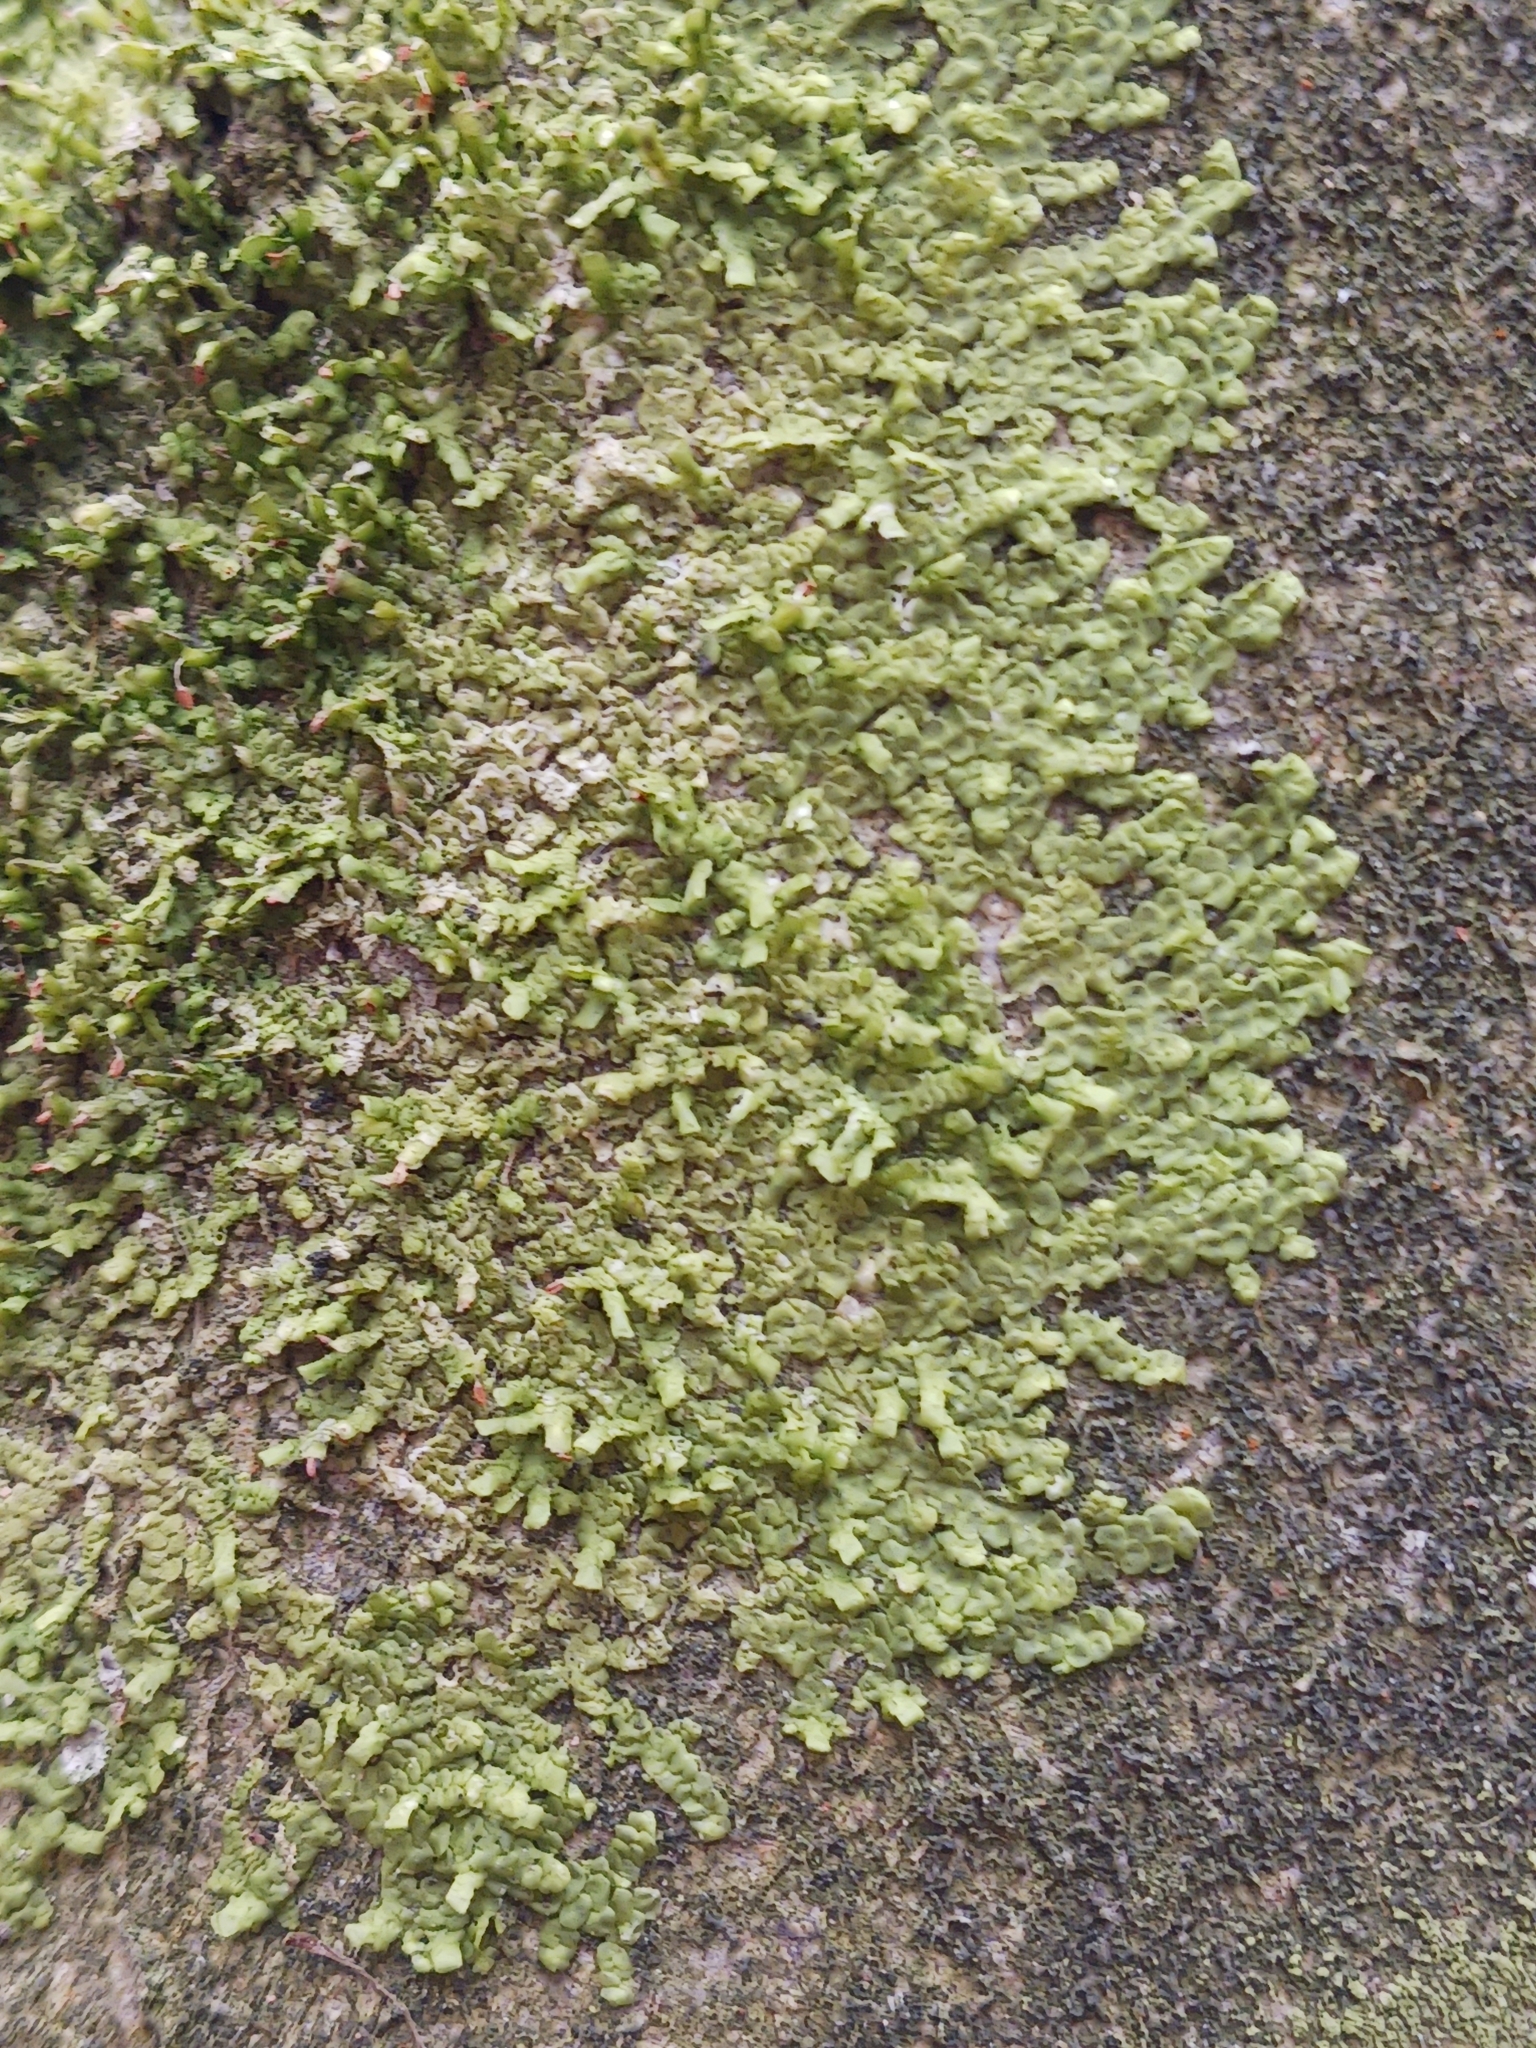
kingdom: Plantae
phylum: Marchantiophyta
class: Jungermanniopsida
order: Porellales
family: Radulaceae
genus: Radula
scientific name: Radula complanata
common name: Flat-leaved scalewort
